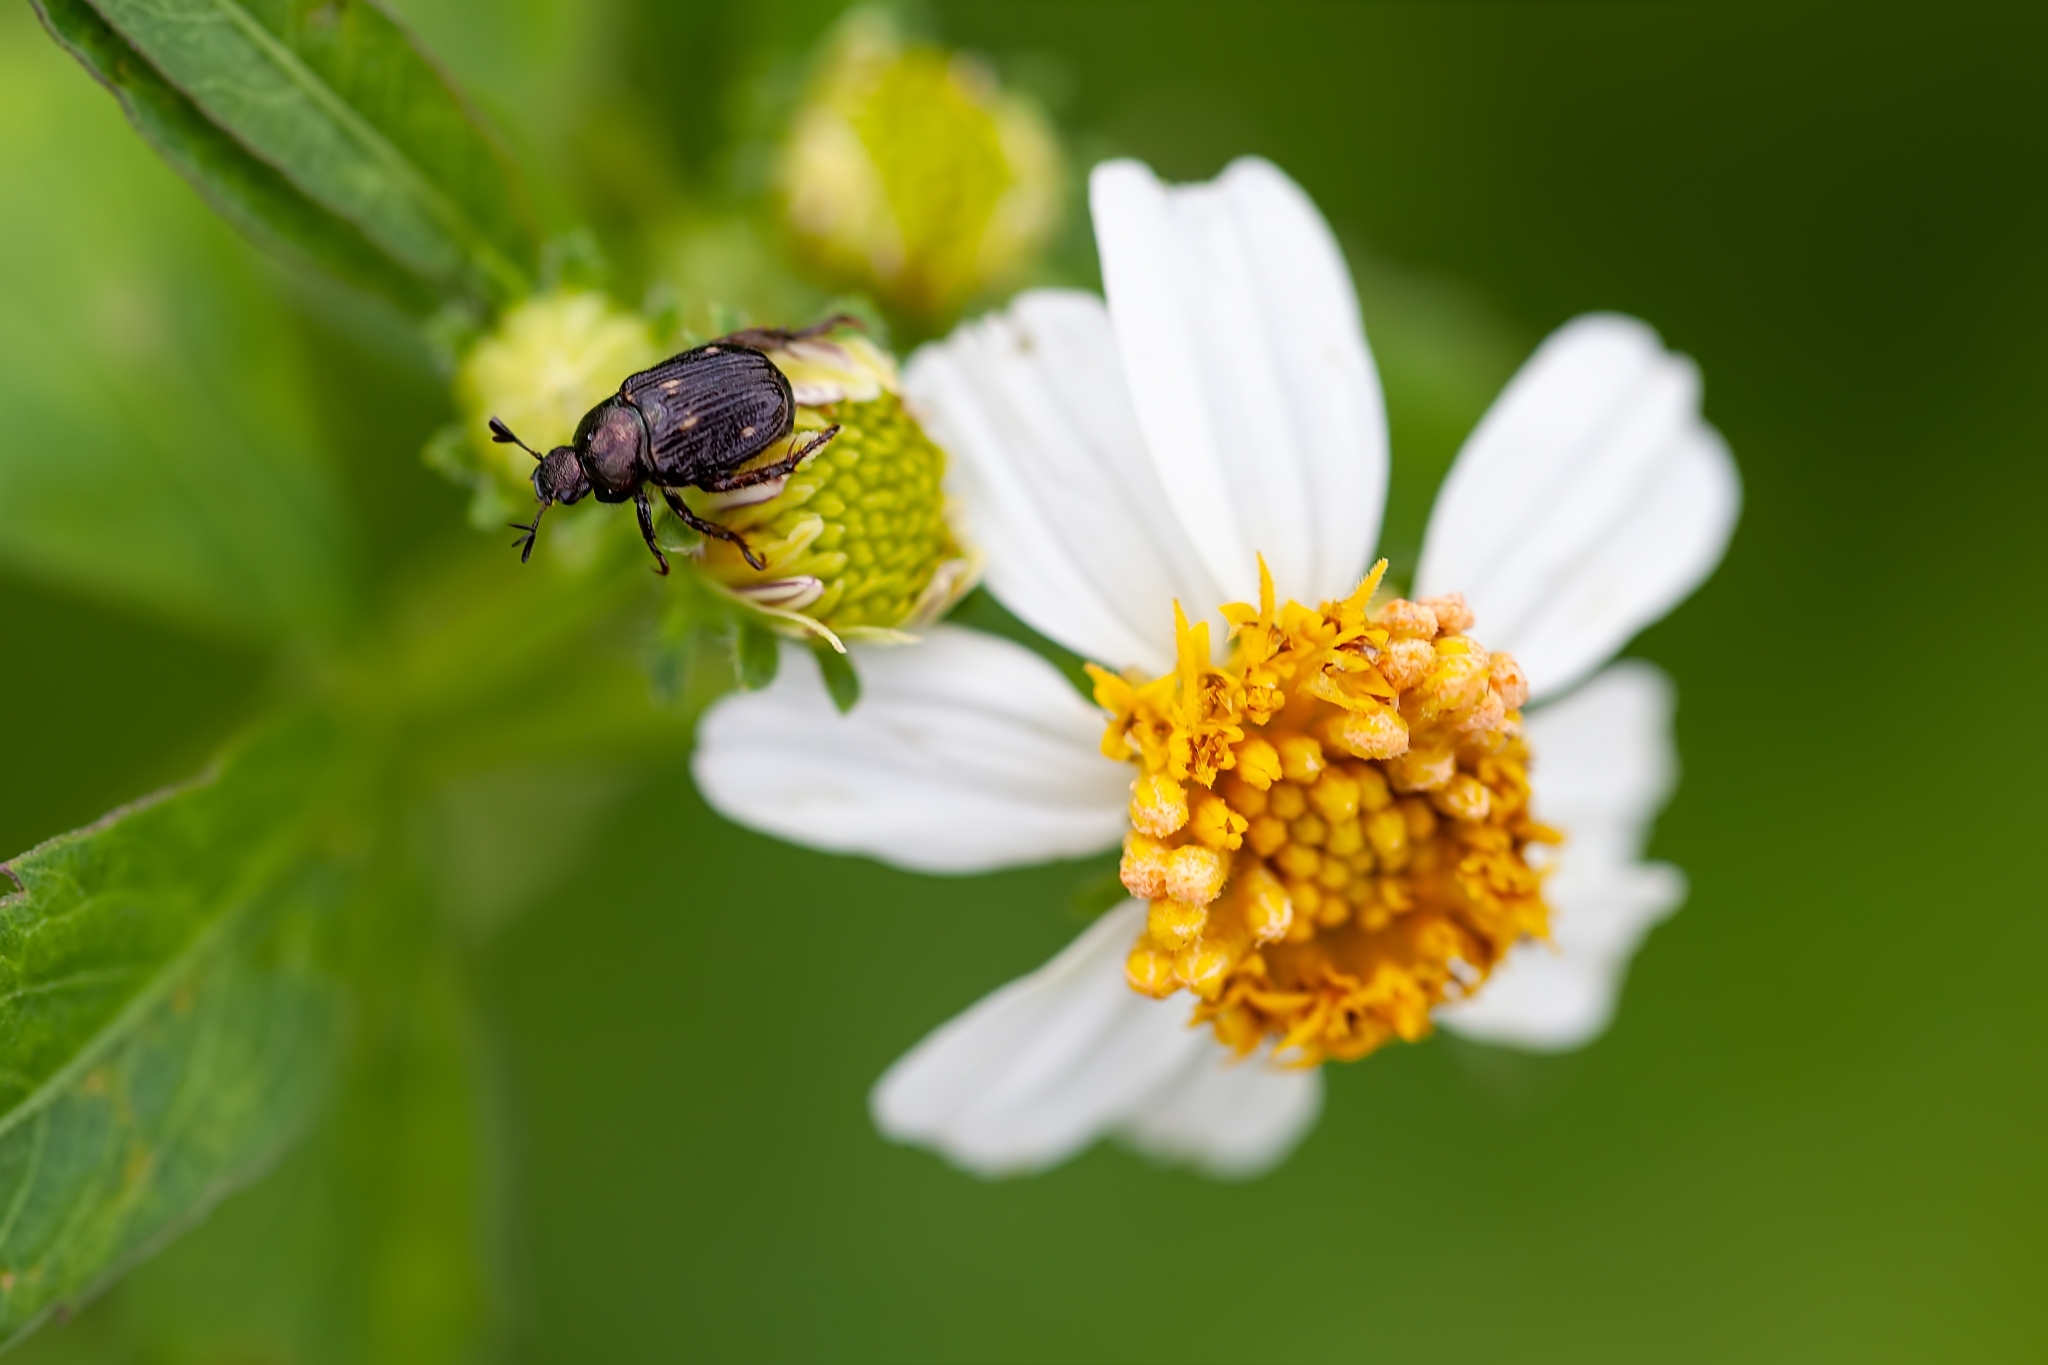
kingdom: Animalia
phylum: Arthropoda
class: Insecta
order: Coleoptera
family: Scarabaeidae
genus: Strigoderma
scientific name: Strigoderma pygmaea
